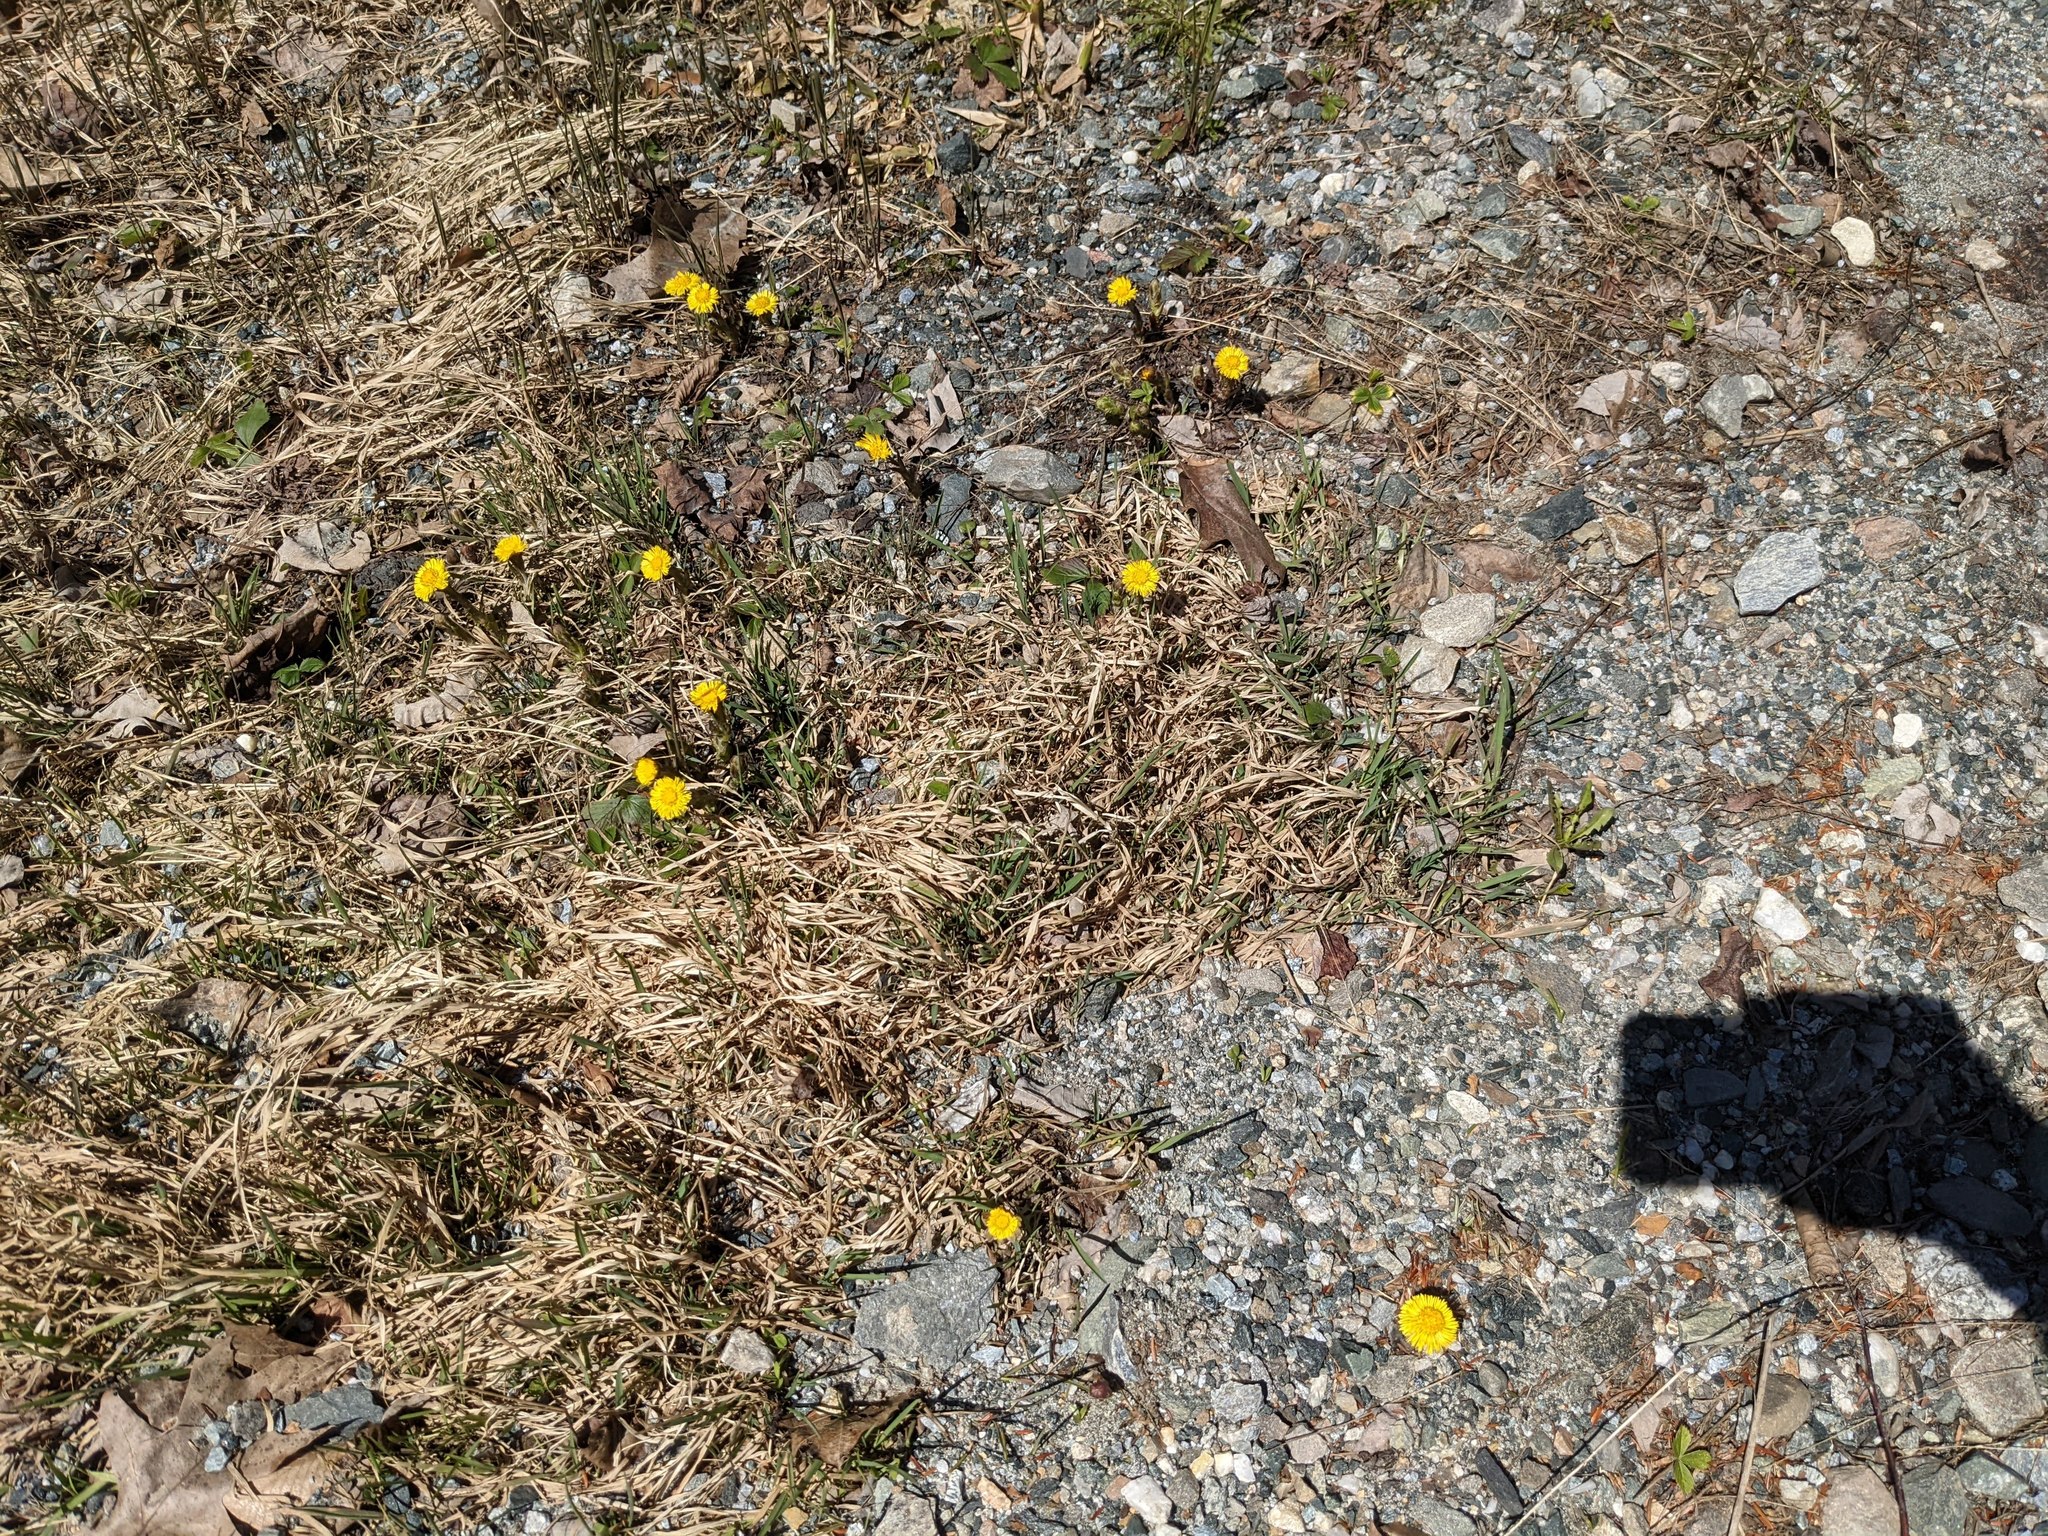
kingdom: Plantae
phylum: Tracheophyta
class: Magnoliopsida
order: Asterales
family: Asteraceae
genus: Tussilago
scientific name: Tussilago farfara
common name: Coltsfoot
